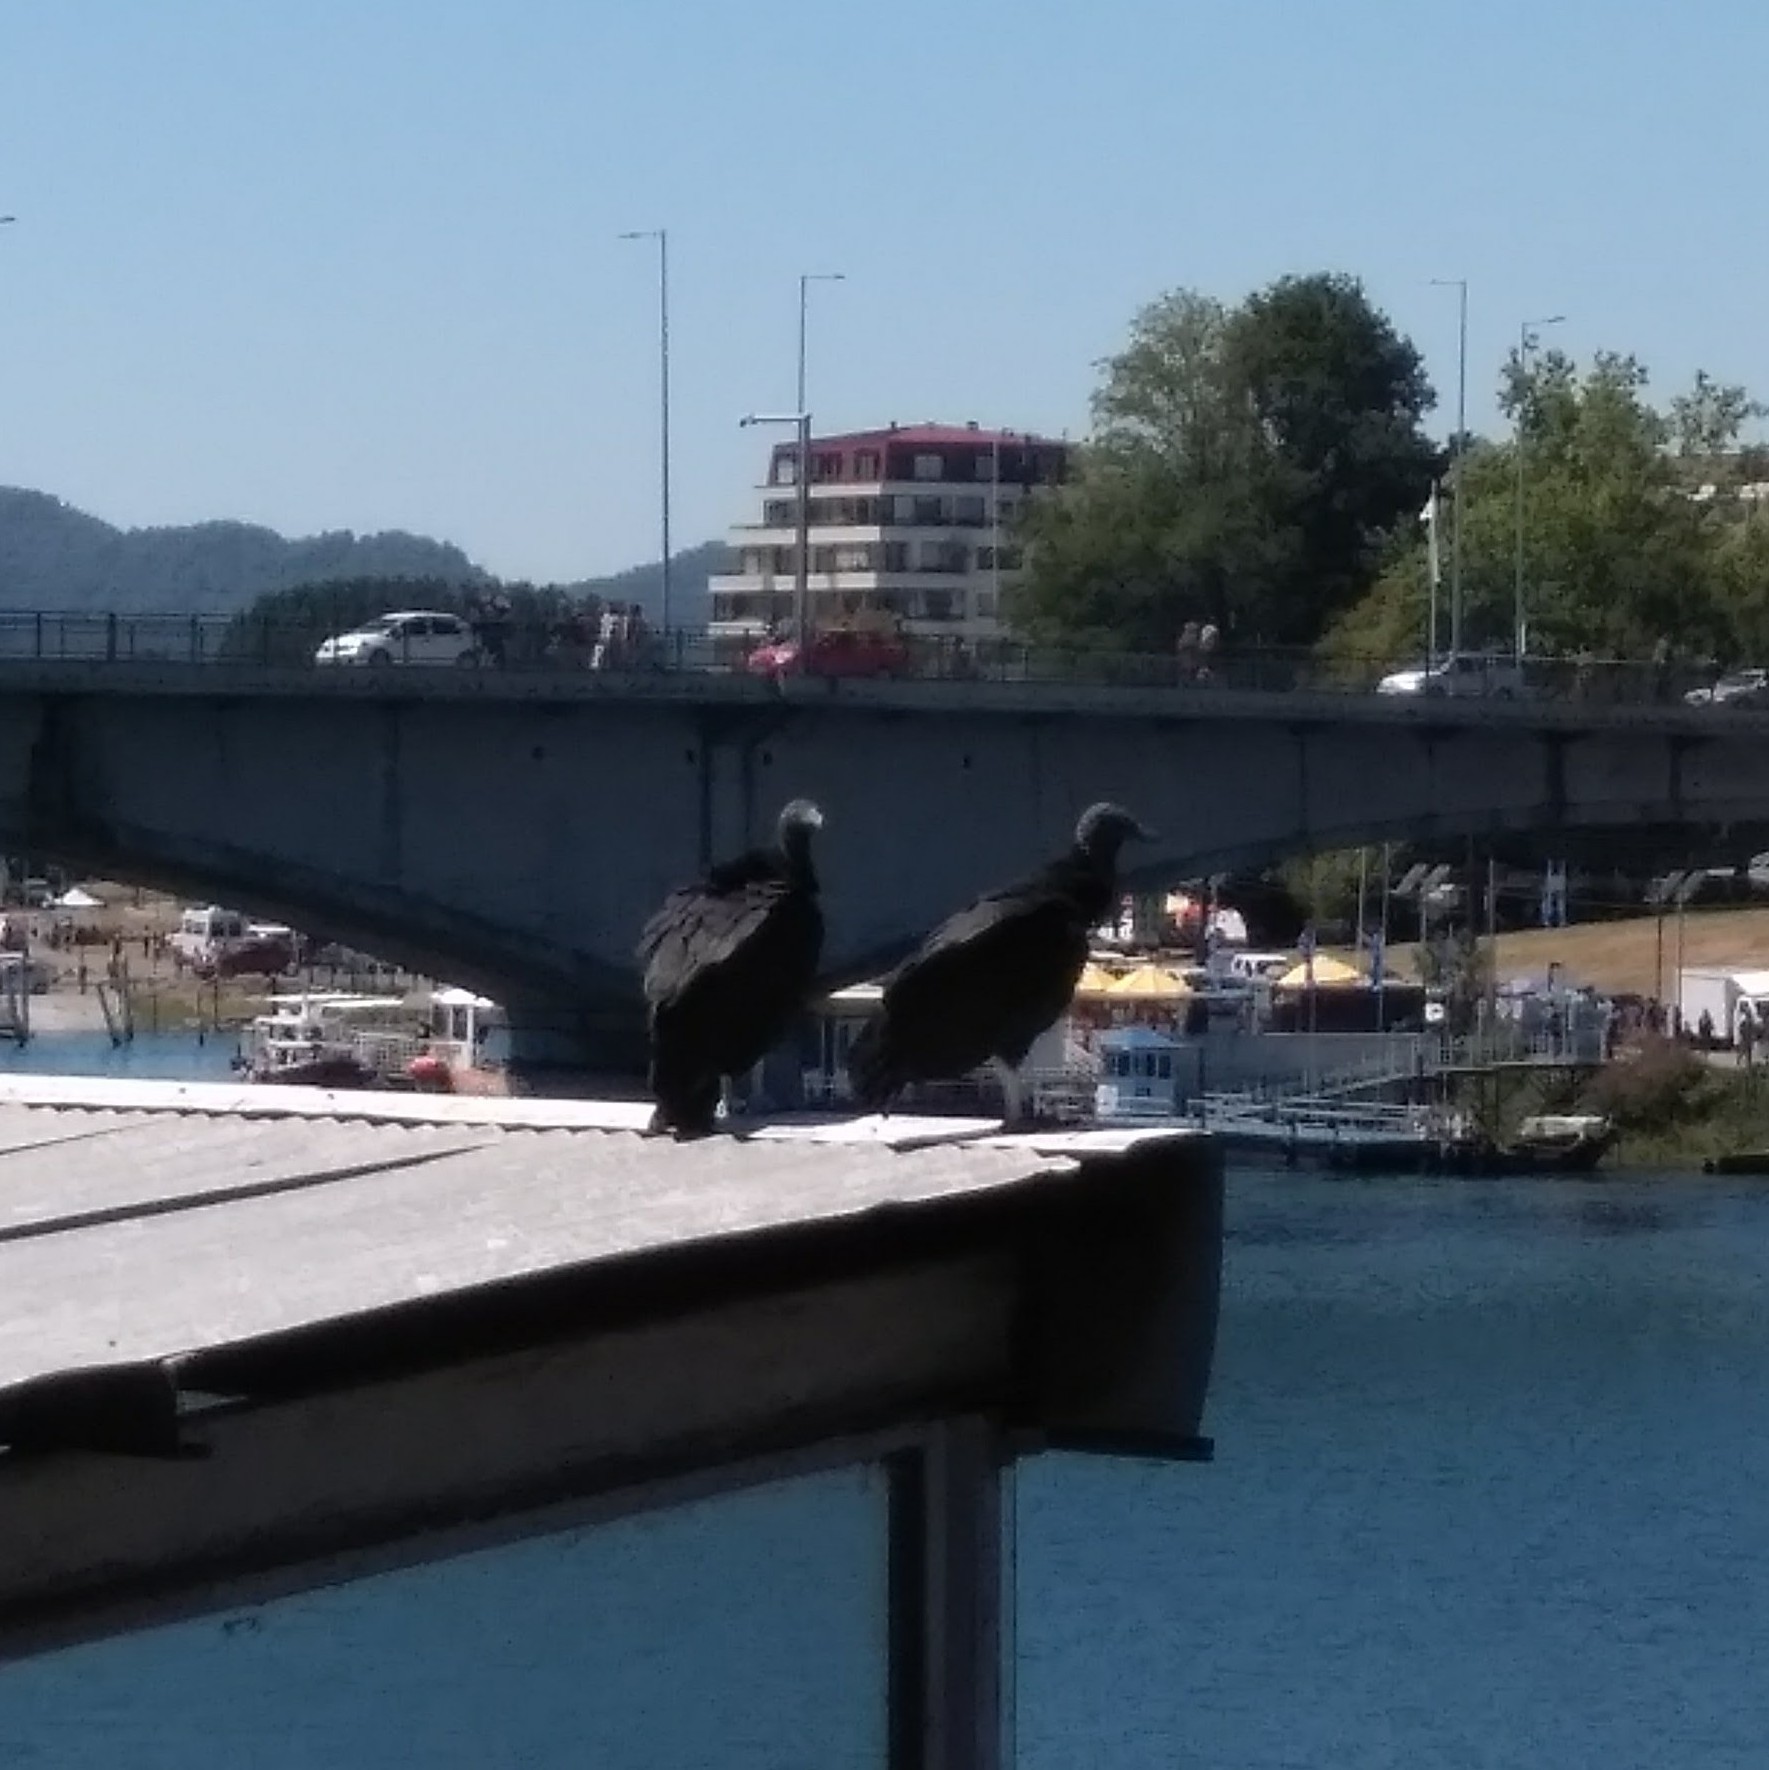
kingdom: Animalia
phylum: Chordata
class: Aves
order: Accipitriformes
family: Cathartidae
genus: Coragyps
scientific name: Coragyps atratus
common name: Black vulture
